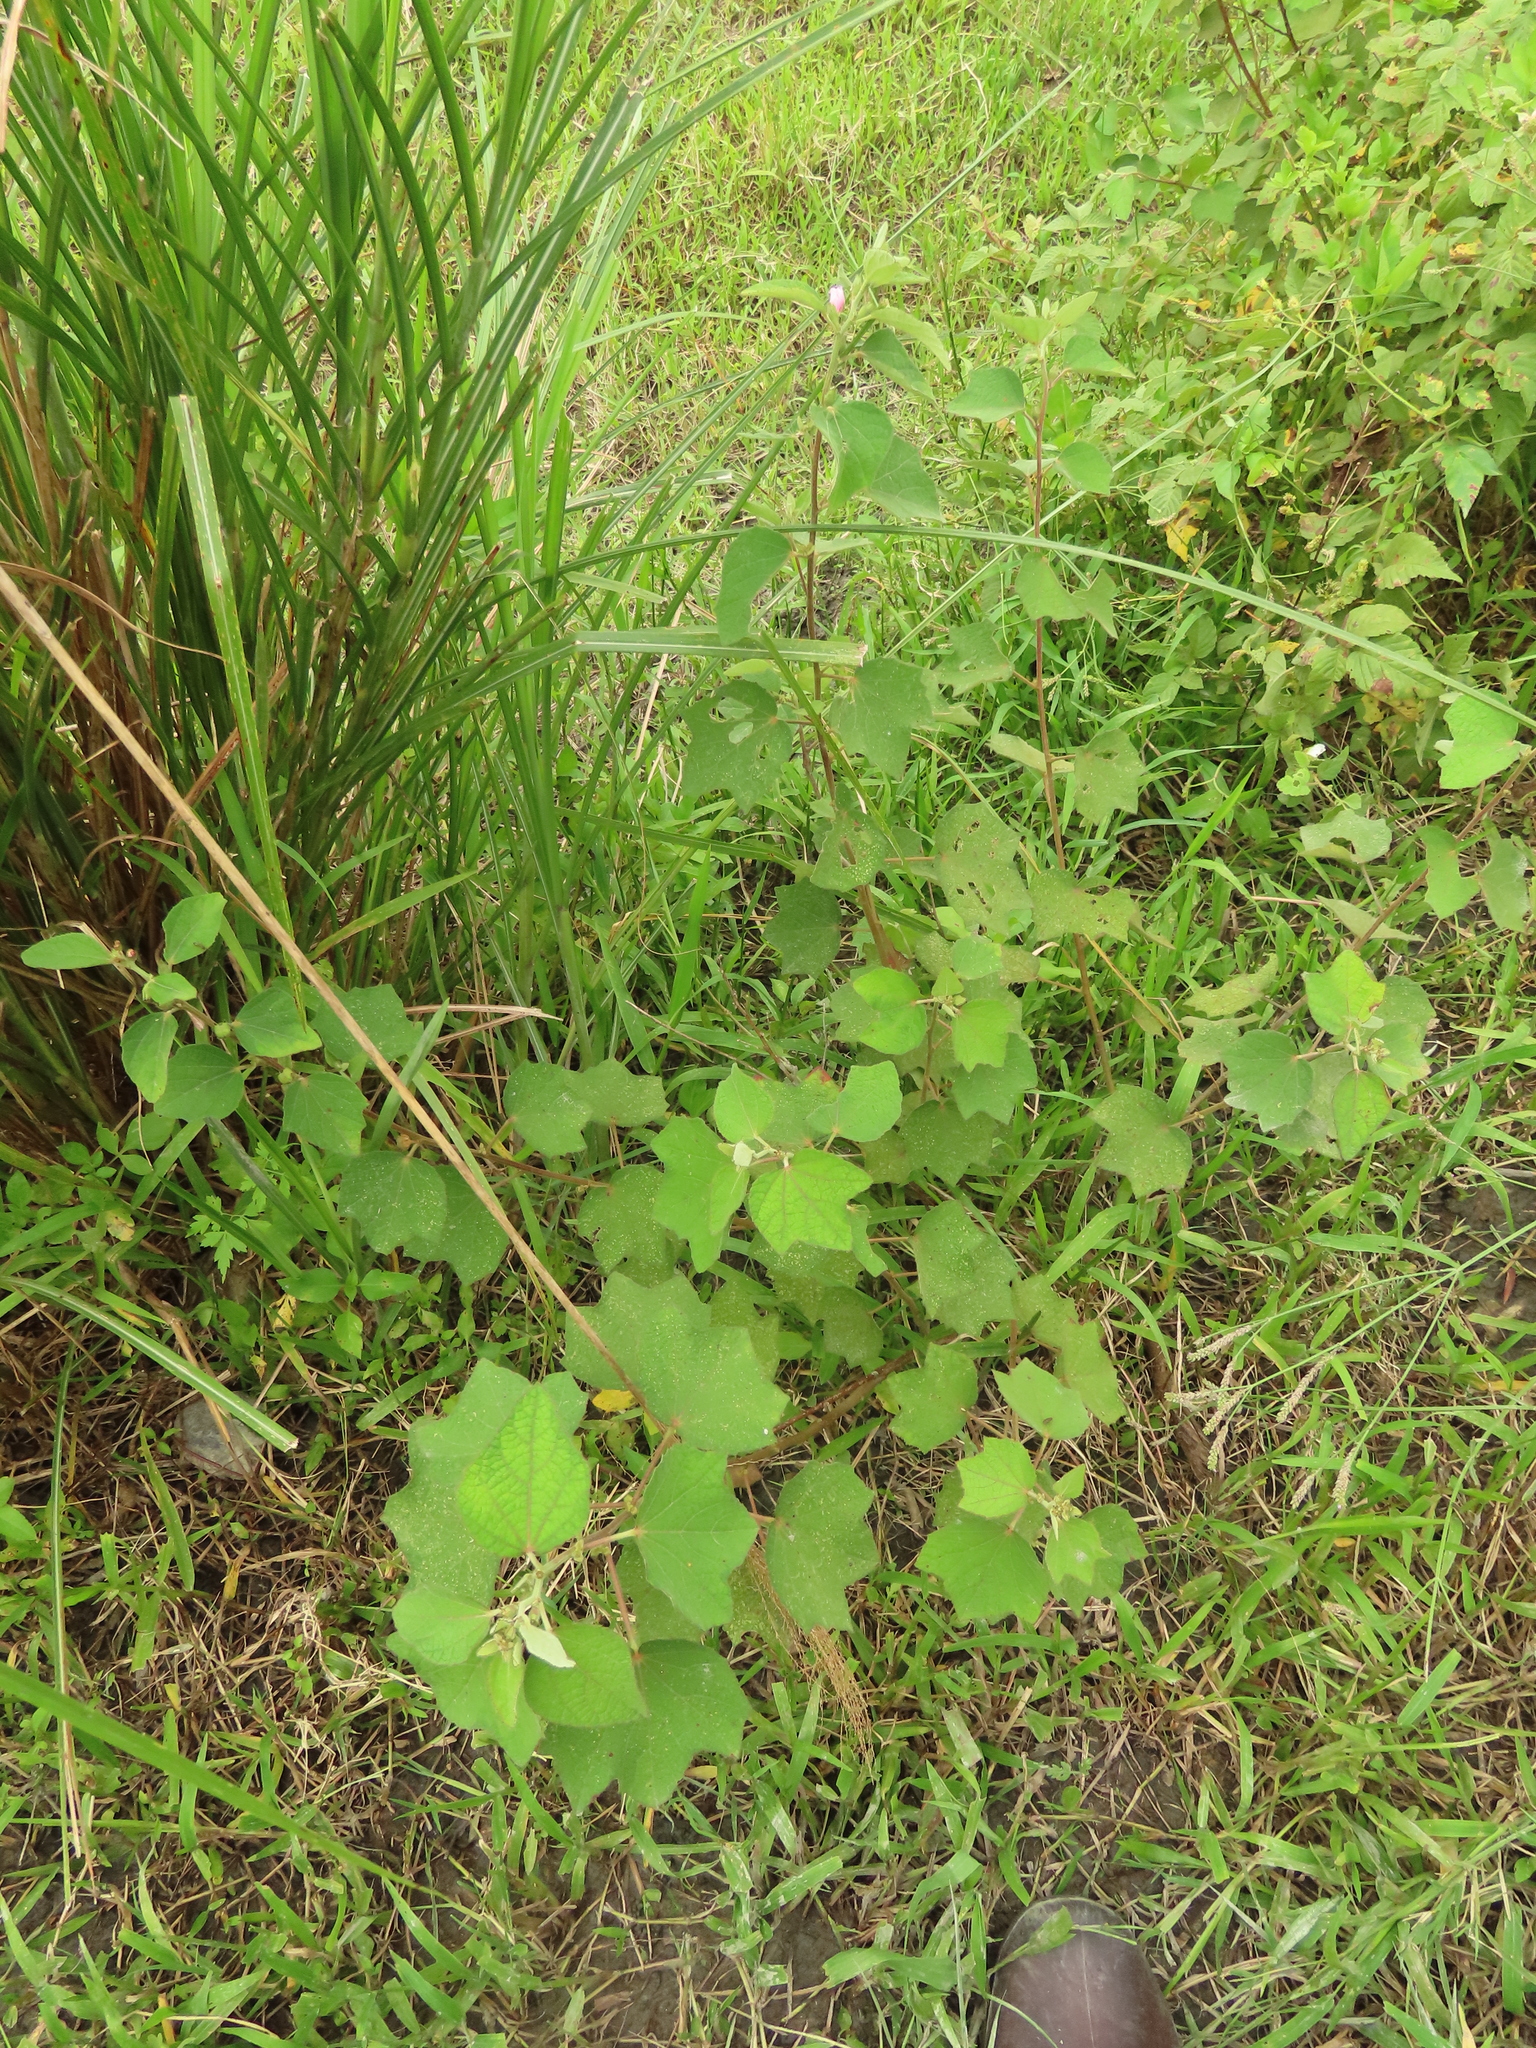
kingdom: Plantae
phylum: Tracheophyta
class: Magnoliopsida
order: Malvales
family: Malvaceae
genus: Urena
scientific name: Urena lobata
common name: Caesarweed
